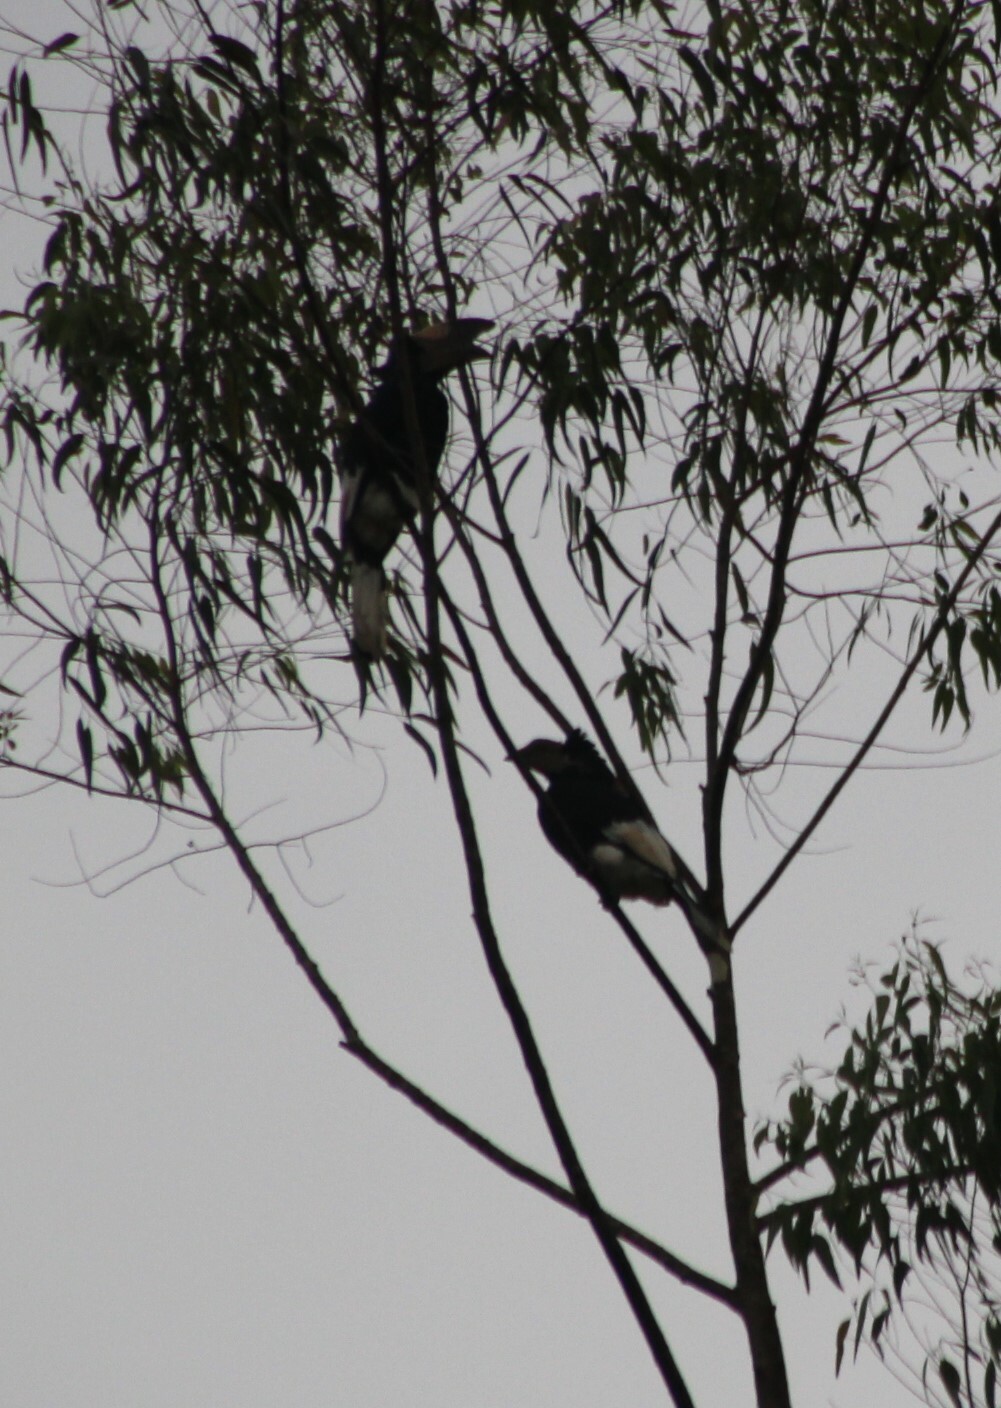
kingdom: Animalia
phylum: Chordata
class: Aves
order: Bucerotiformes
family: Bucerotidae
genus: Bycanistes
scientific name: Bycanistes subcylindricus
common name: Black-and-white-casqued hornbill
